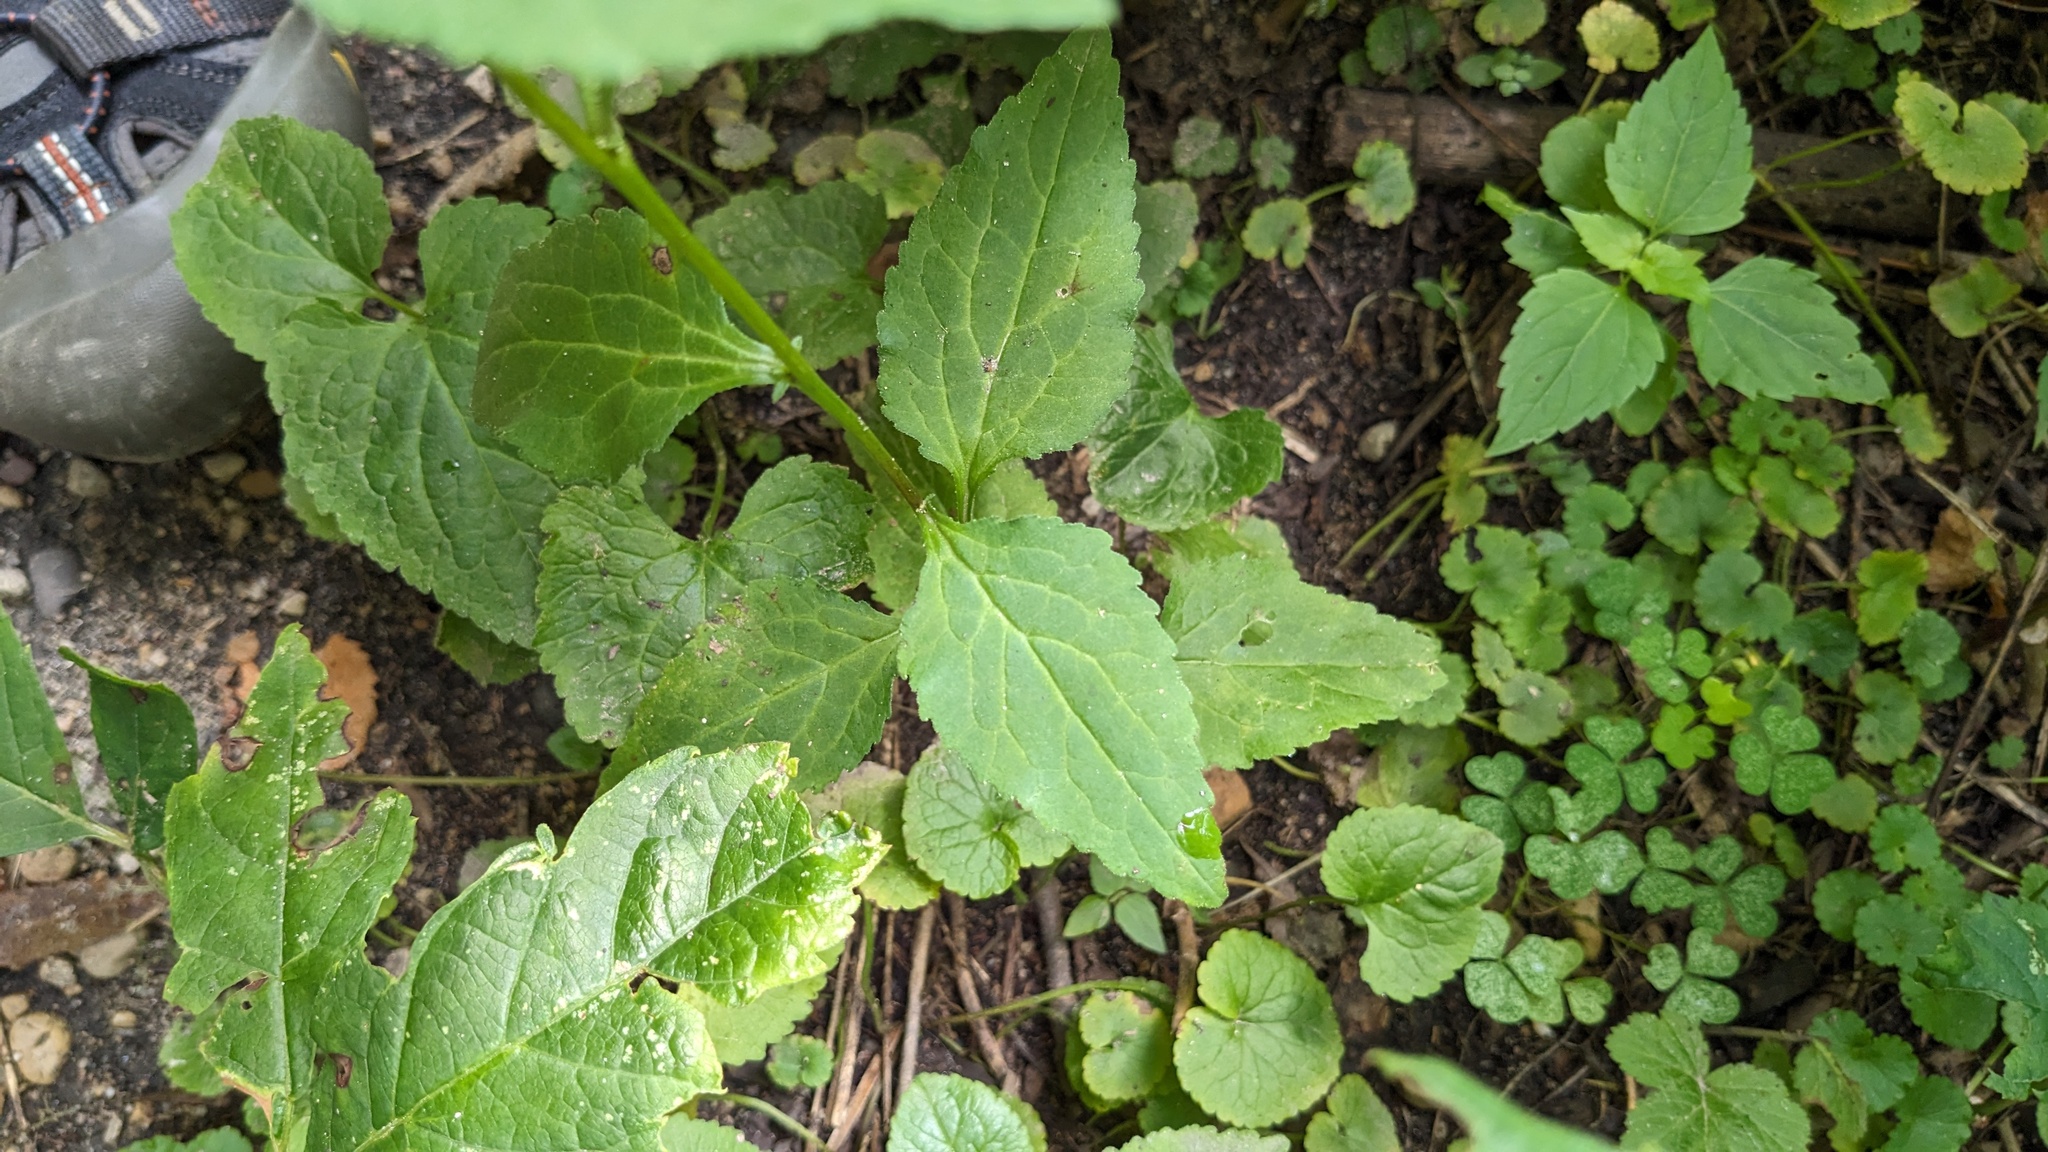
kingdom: Plantae
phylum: Tracheophyta
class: Magnoliopsida
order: Asterales
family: Campanulaceae
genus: Campanula
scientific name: Campanula rapunculoides
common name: Creeping bellflower
